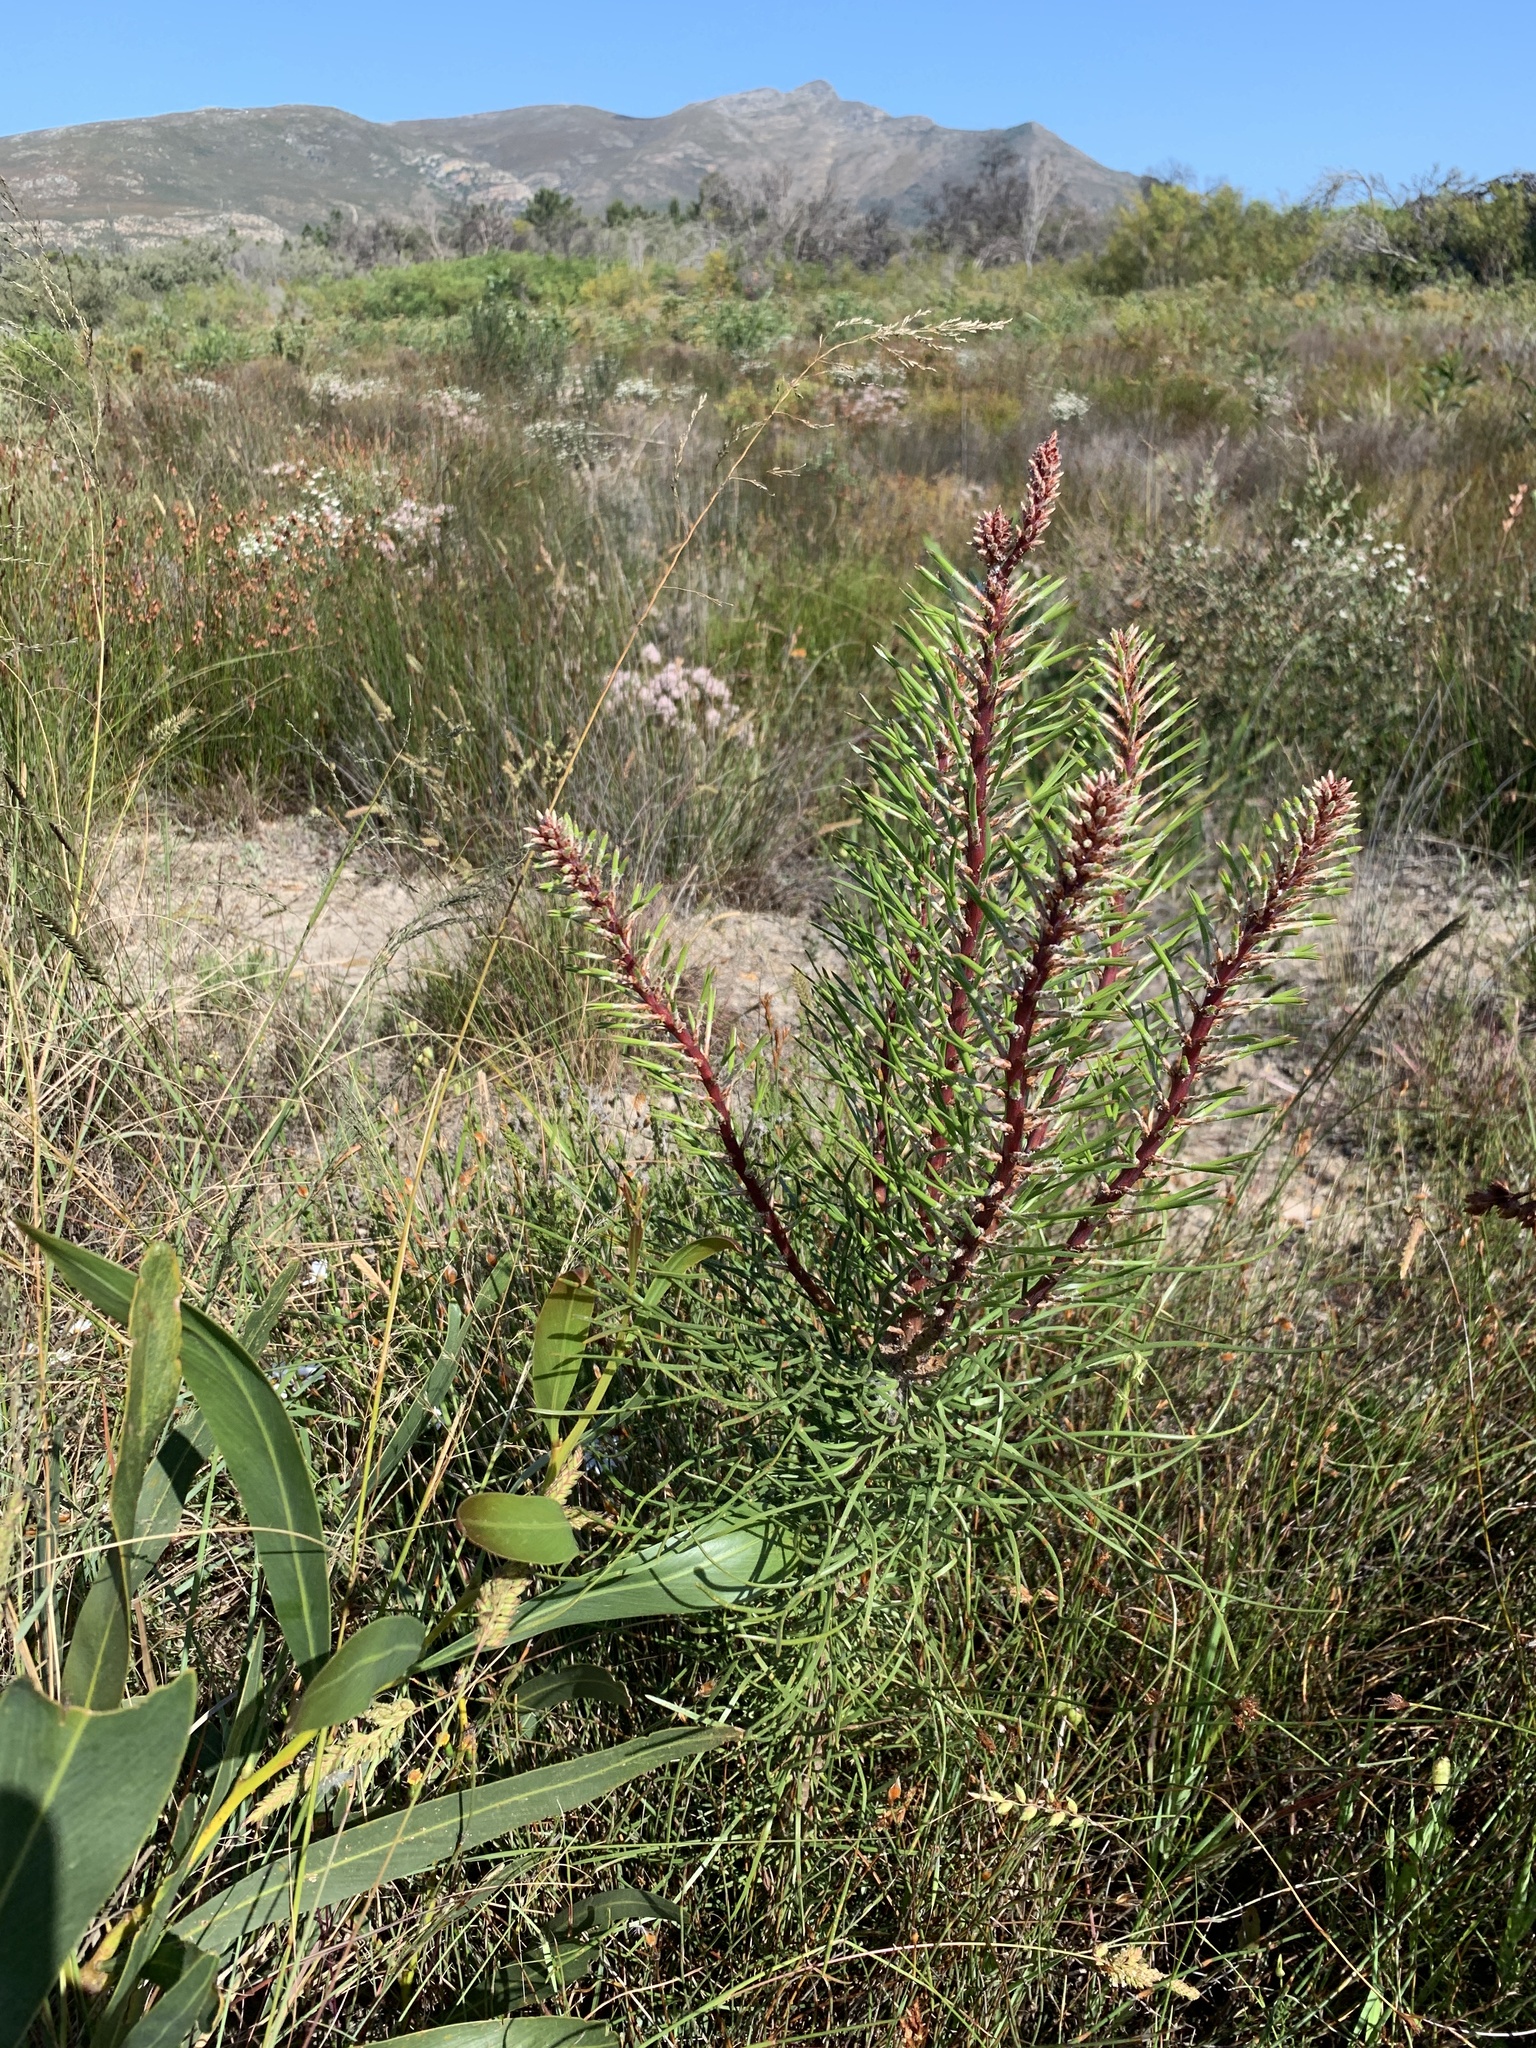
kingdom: Plantae
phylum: Tracheophyta
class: Pinopsida
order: Pinales
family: Pinaceae
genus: Pinus
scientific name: Pinus pinaster
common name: Maritime pine
